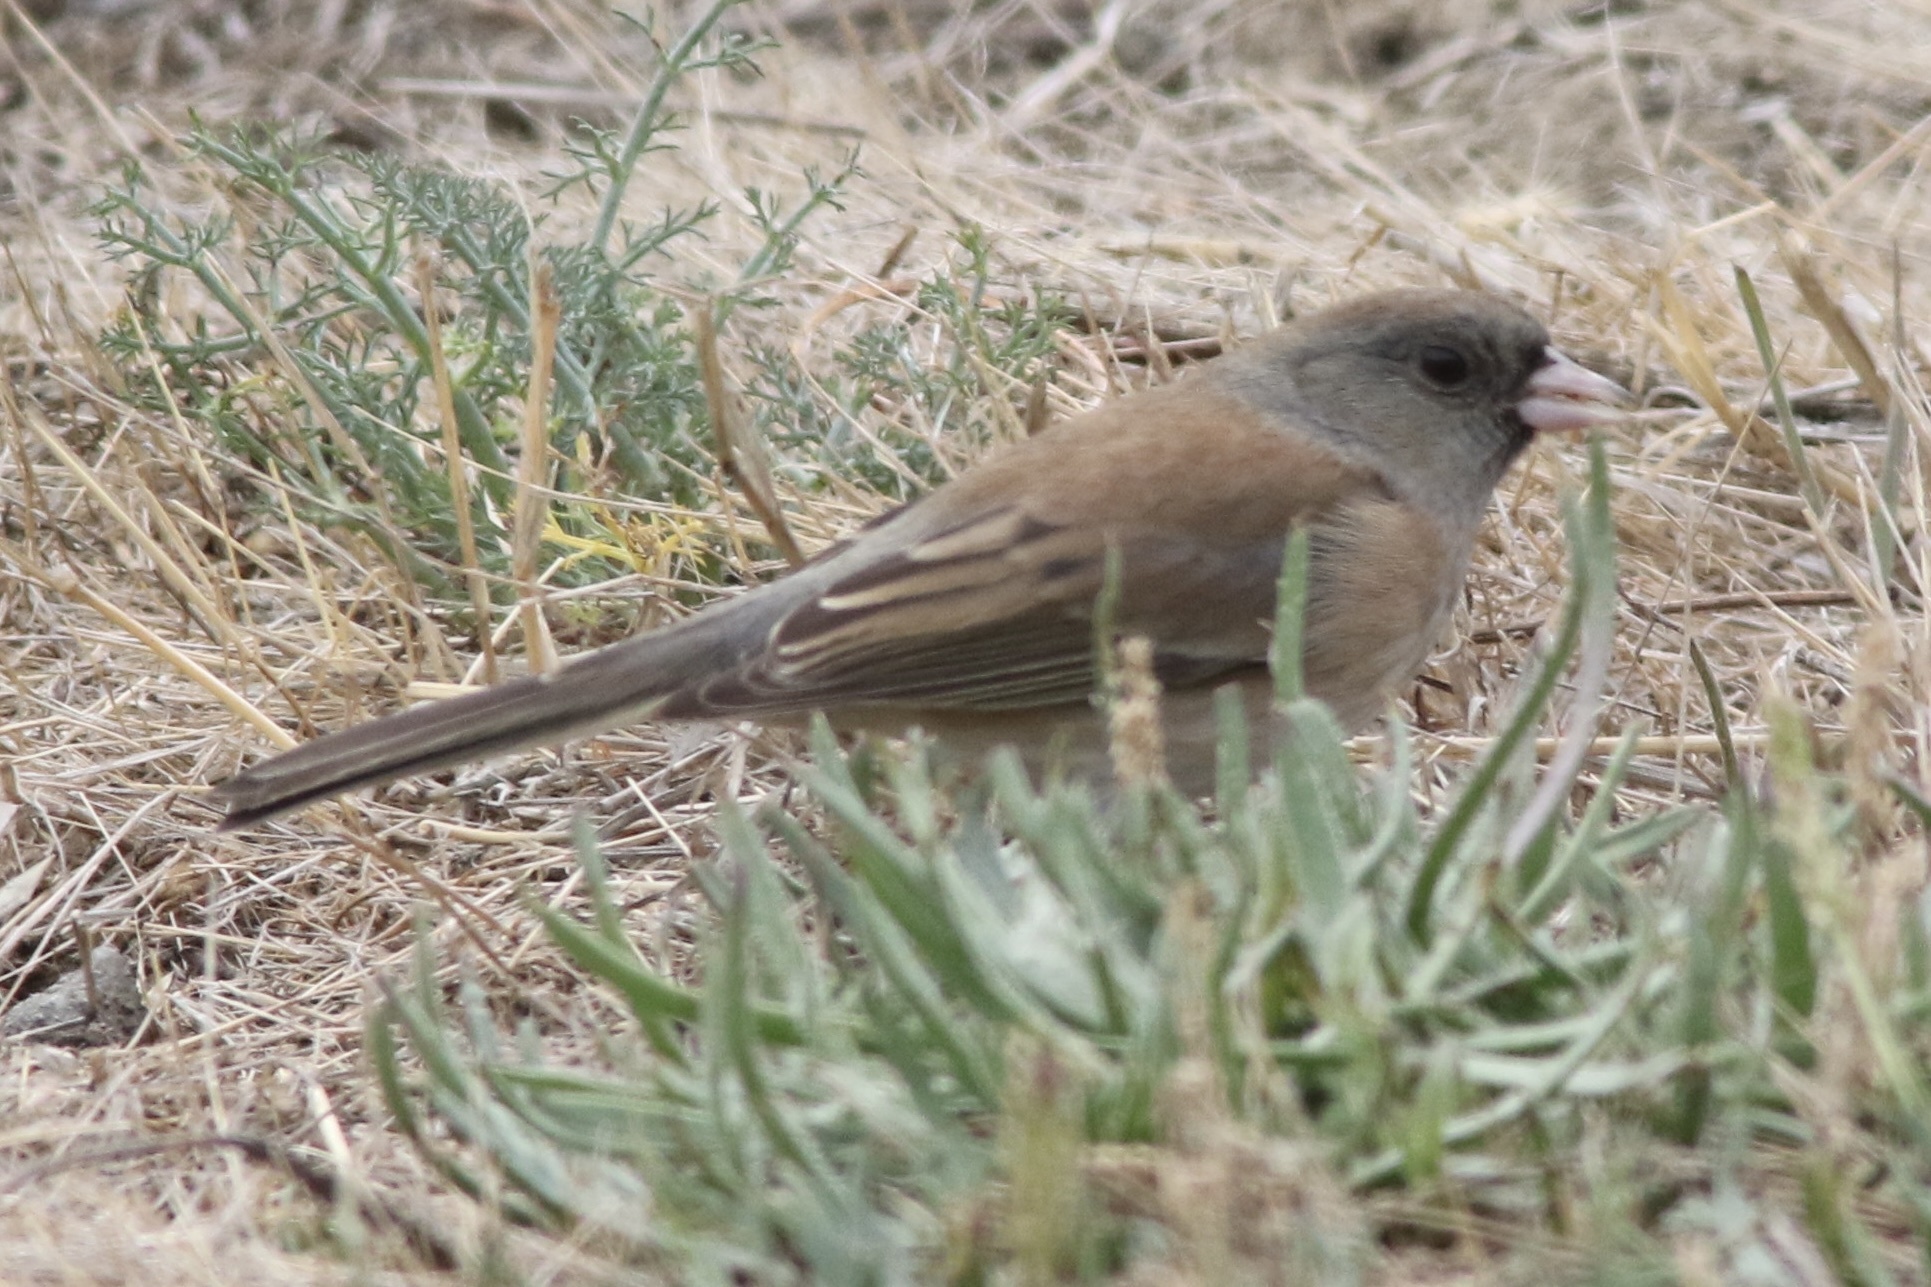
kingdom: Animalia
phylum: Chordata
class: Aves
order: Passeriformes
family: Passerellidae
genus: Junco
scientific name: Junco hyemalis
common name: Dark-eyed junco
